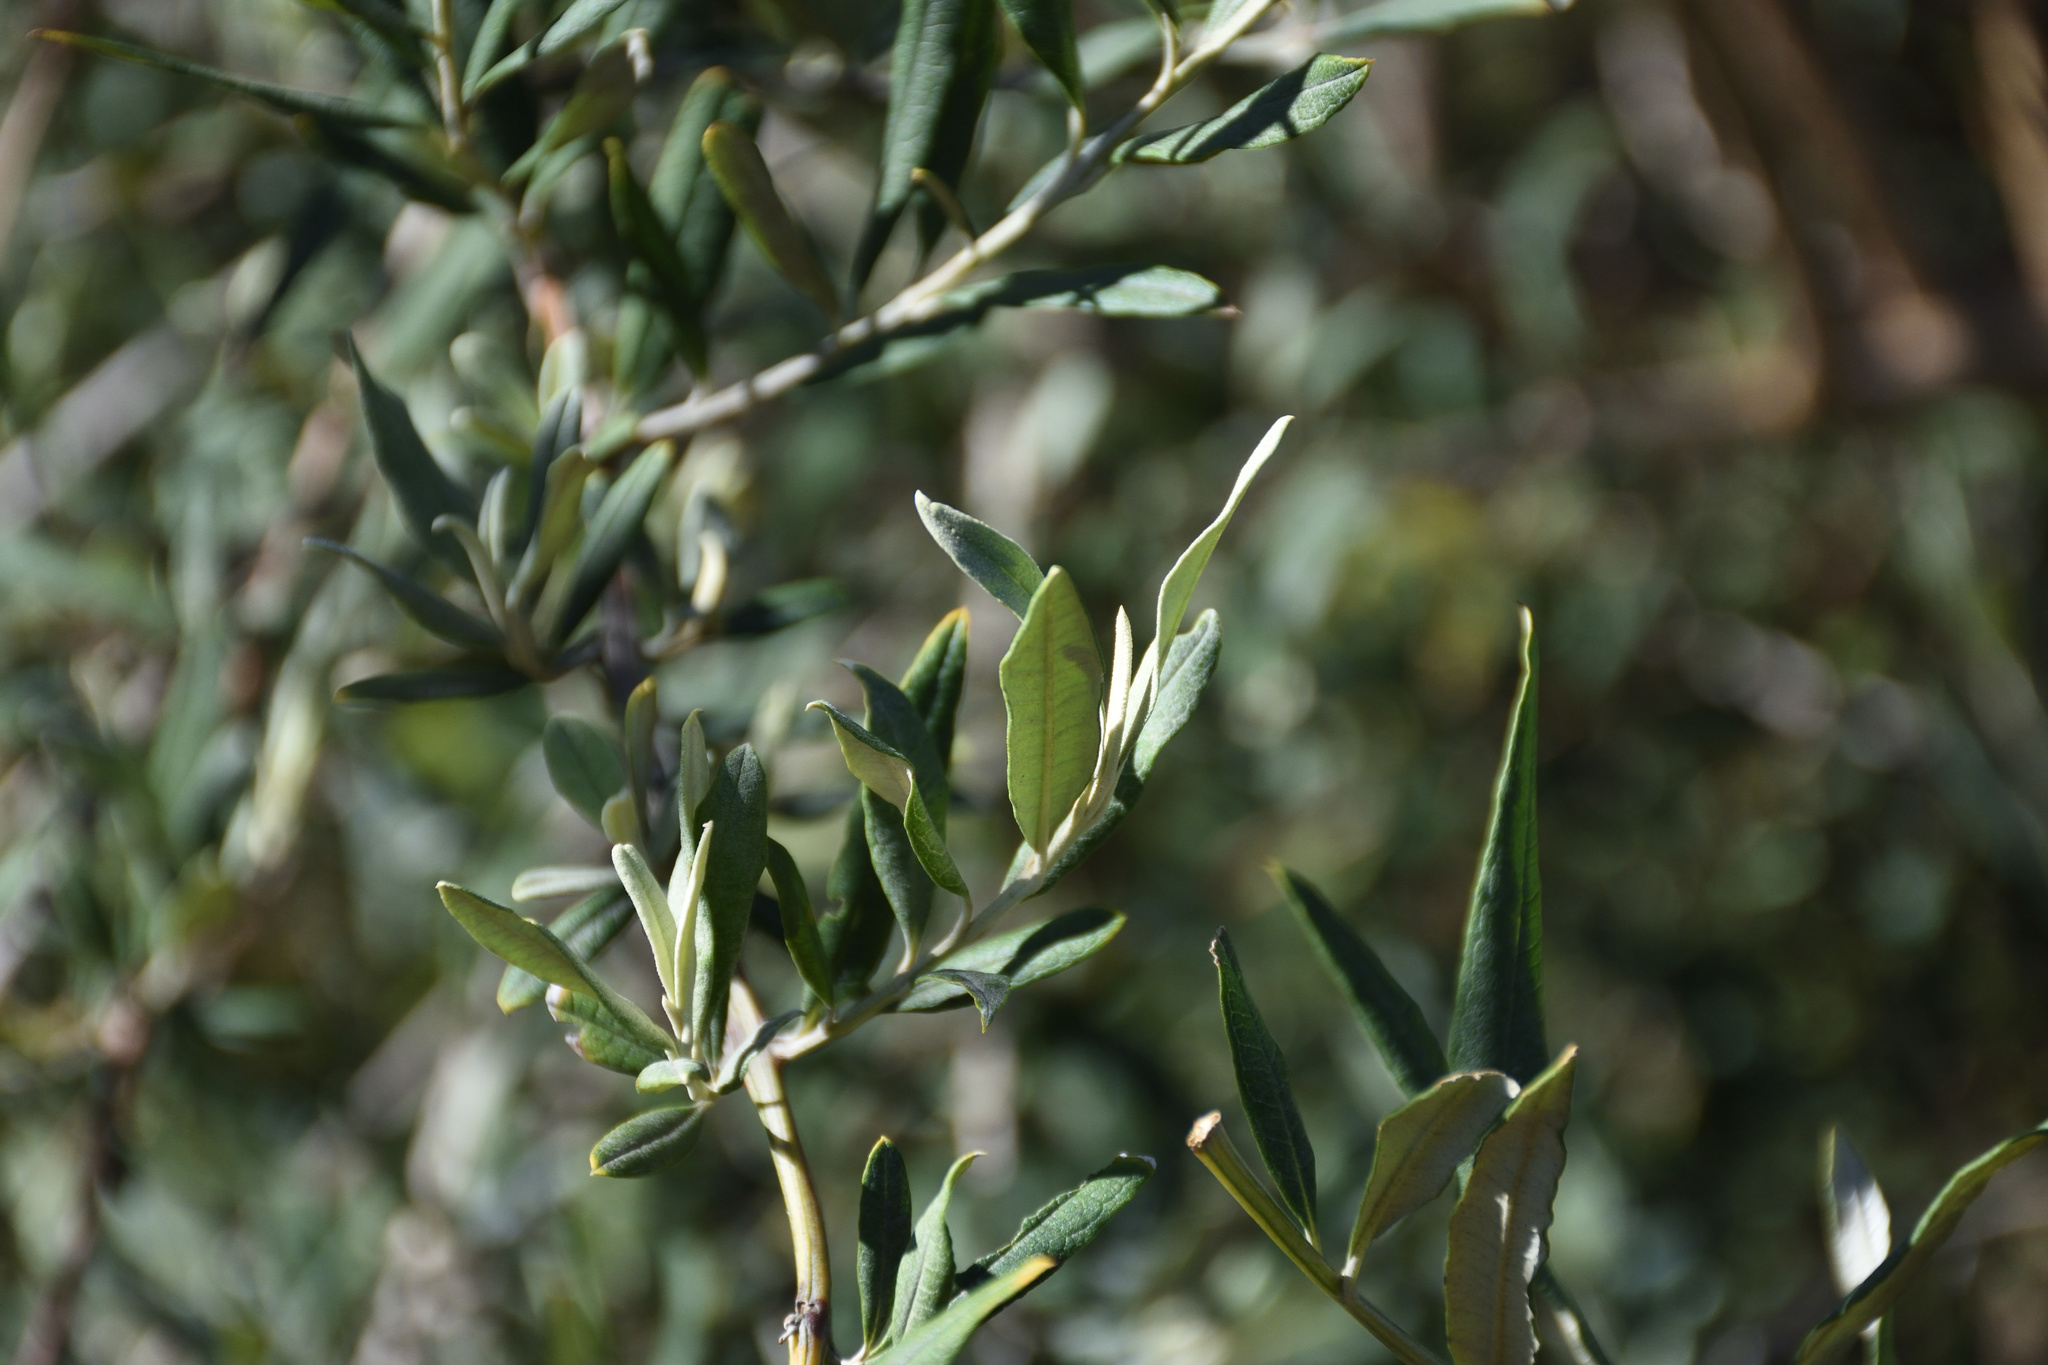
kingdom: Plantae
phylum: Tracheophyta
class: Magnoliopsida
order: Lamiales
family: Scrophulariaceae
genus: Buddleja
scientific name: Buddleja saligna
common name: False olive
